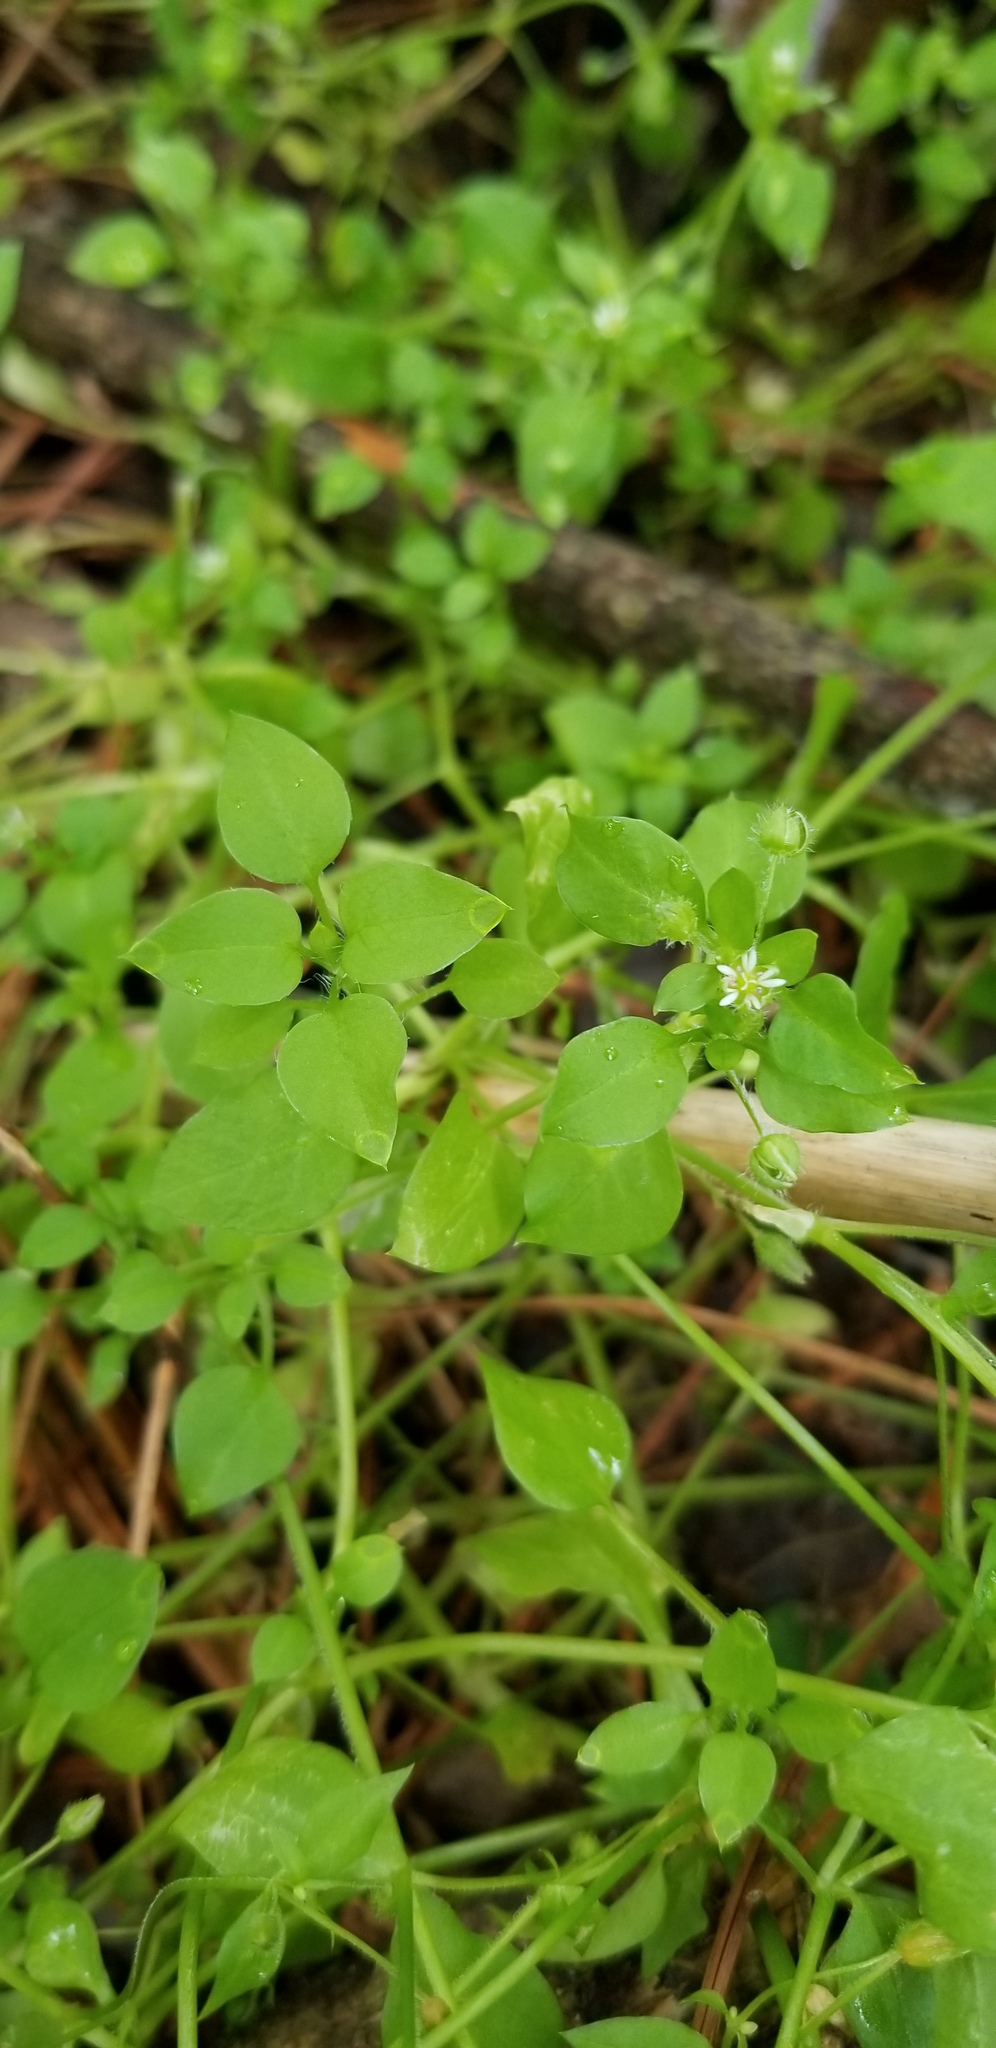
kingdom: Plantae
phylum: Tracheophyta
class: Magnoliopsida
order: Caryophyllales
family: Caryophyllaceae
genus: Stellaria
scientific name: Stellaria media
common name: Common chickweed
